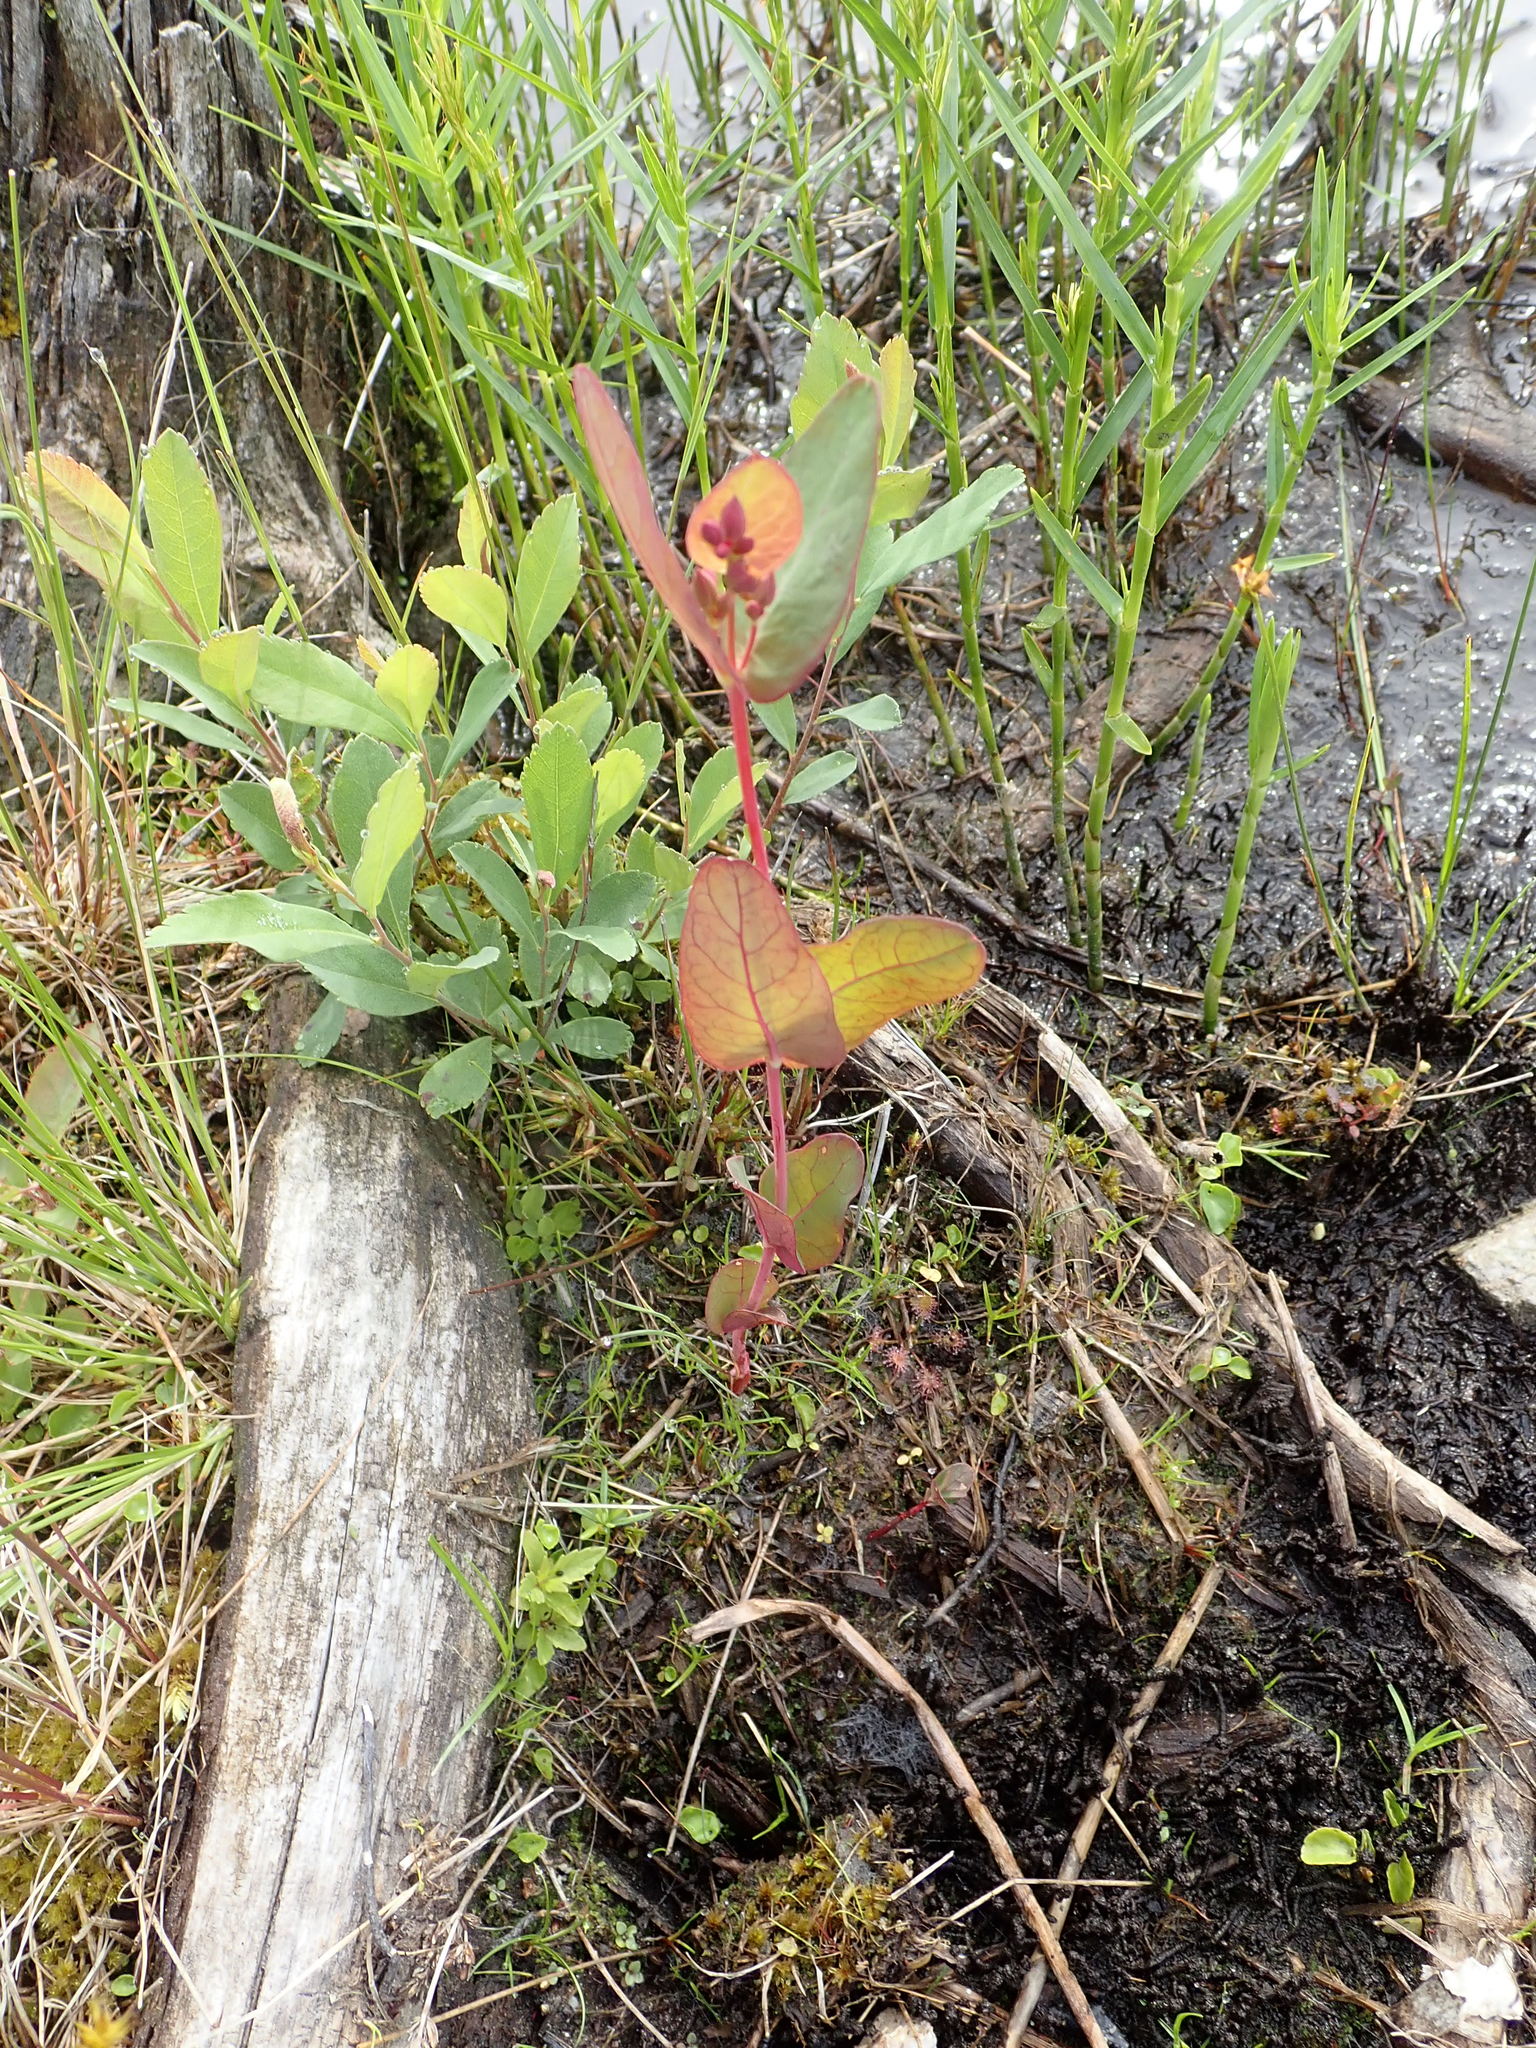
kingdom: Plantae
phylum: Tracheophyta
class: Magnoliopsida
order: Malpighiales
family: Hypericaceae
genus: Triadenum
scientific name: Triadenum fraseri
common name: Fraser's marsh st. johnswort
